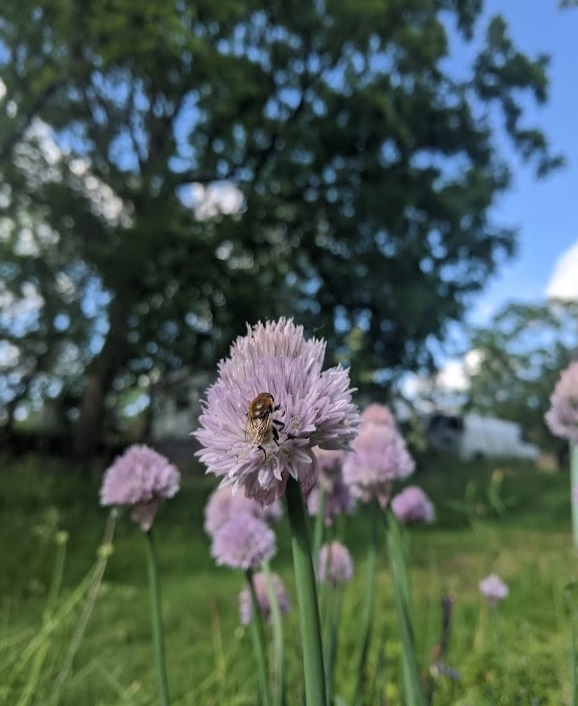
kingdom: Animalia
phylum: Arthropoda
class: Insecta
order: Diptera
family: Syrphidae
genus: Merodon
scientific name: Merodon equestris
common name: Greater bulb-fly
